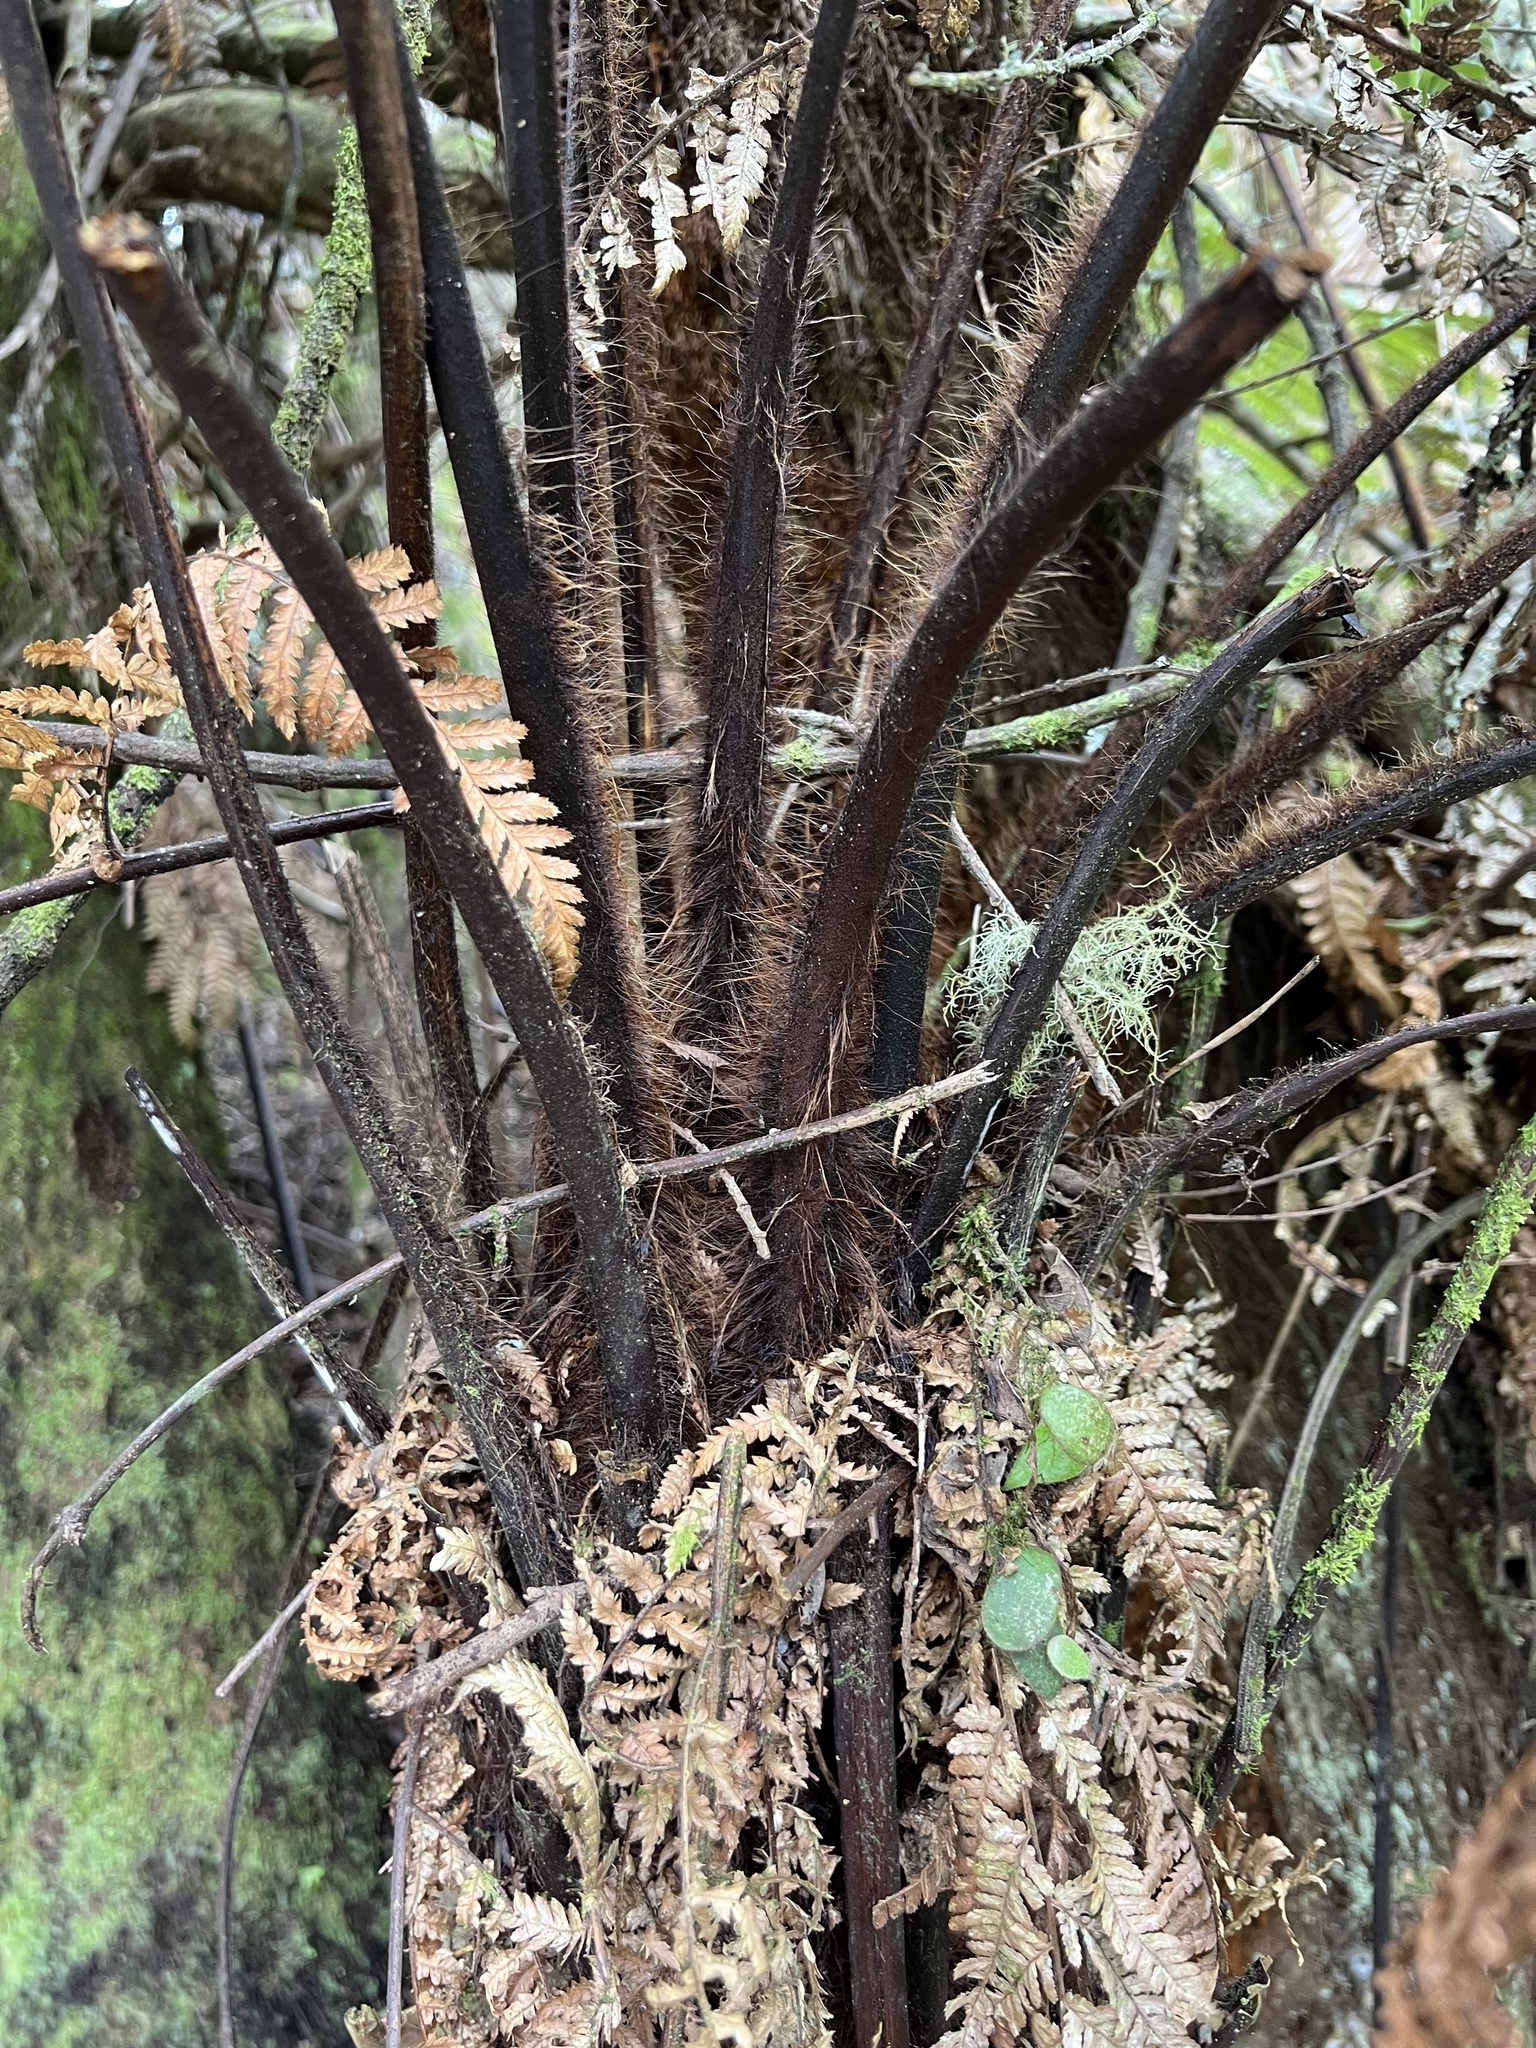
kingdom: Plantae
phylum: Tracheophyta
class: Polypodiopsida
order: Polypodiales
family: Polypodiaceae
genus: Pyrrosia
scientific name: Pyrrosia eleagnifolia
